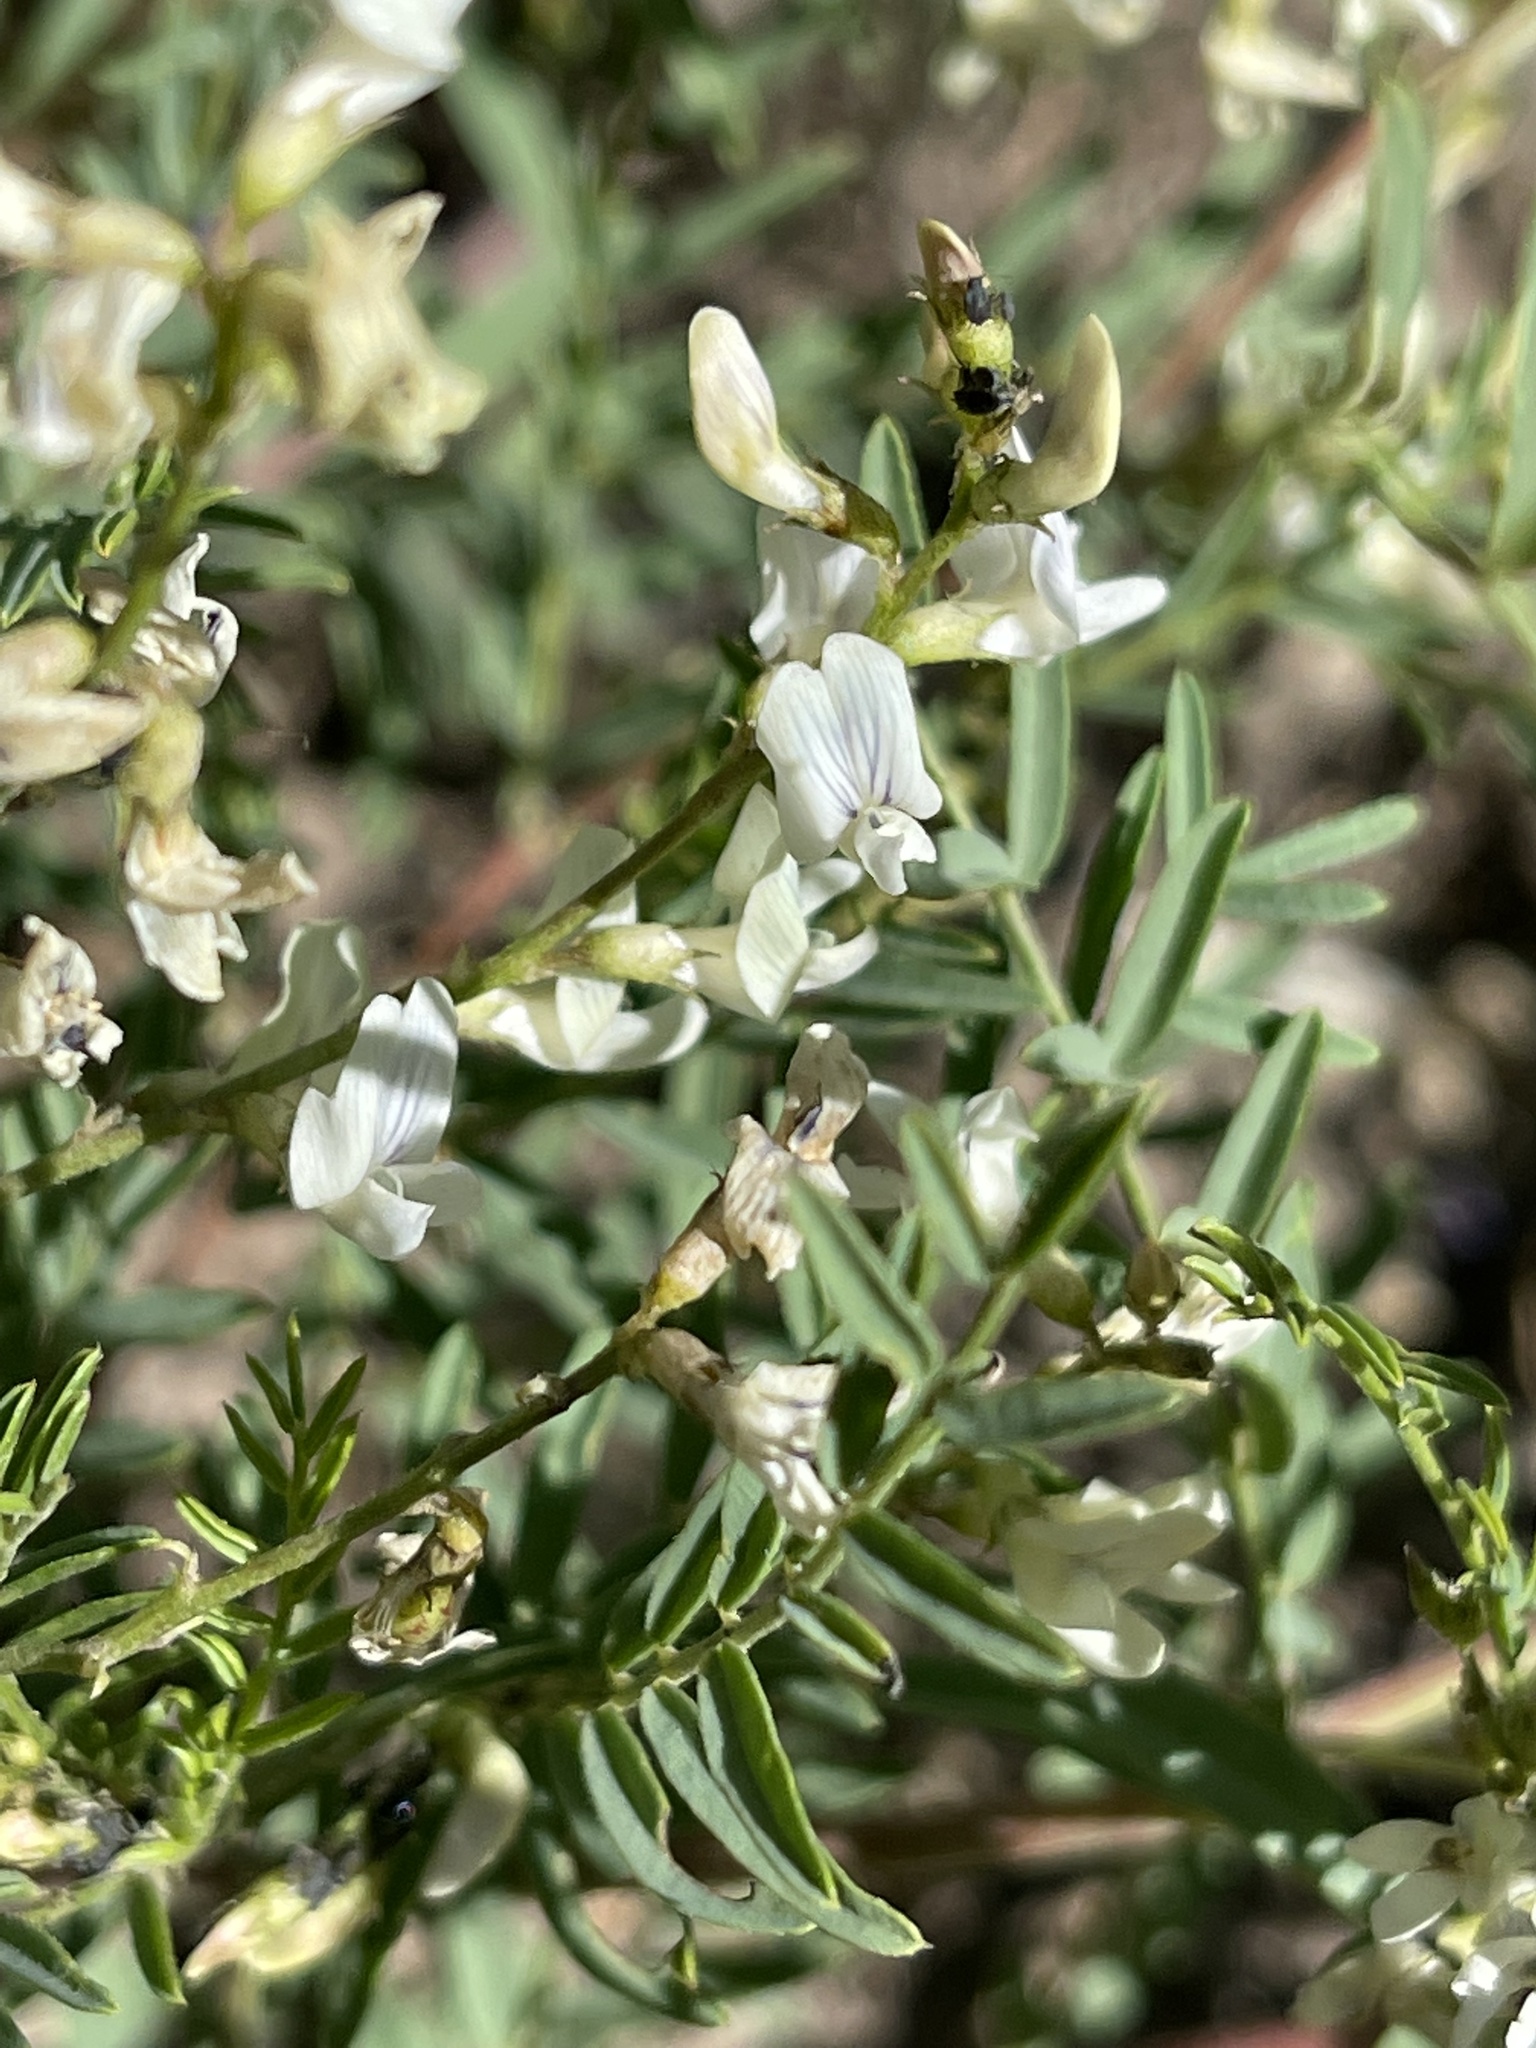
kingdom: Plantae
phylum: Tracheophyta
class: Magnoliopsida
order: Fabales
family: Fabaceae
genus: Astragalus
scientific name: Astragalus tenellus
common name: Pulse milk-vetch
